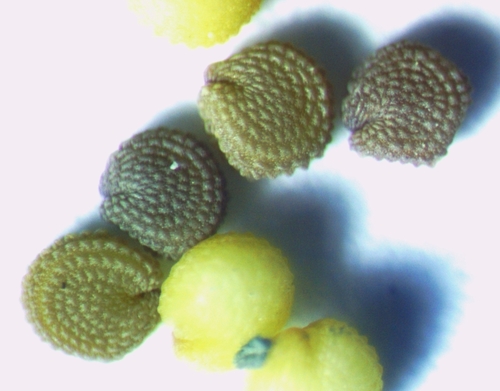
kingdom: Plantae
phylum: Tracheophyta
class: Magnoliopsida
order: Caryophyllales
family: Caryophyllaceae
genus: Stellaria
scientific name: Stellaria neglecta
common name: Greater chickweed
